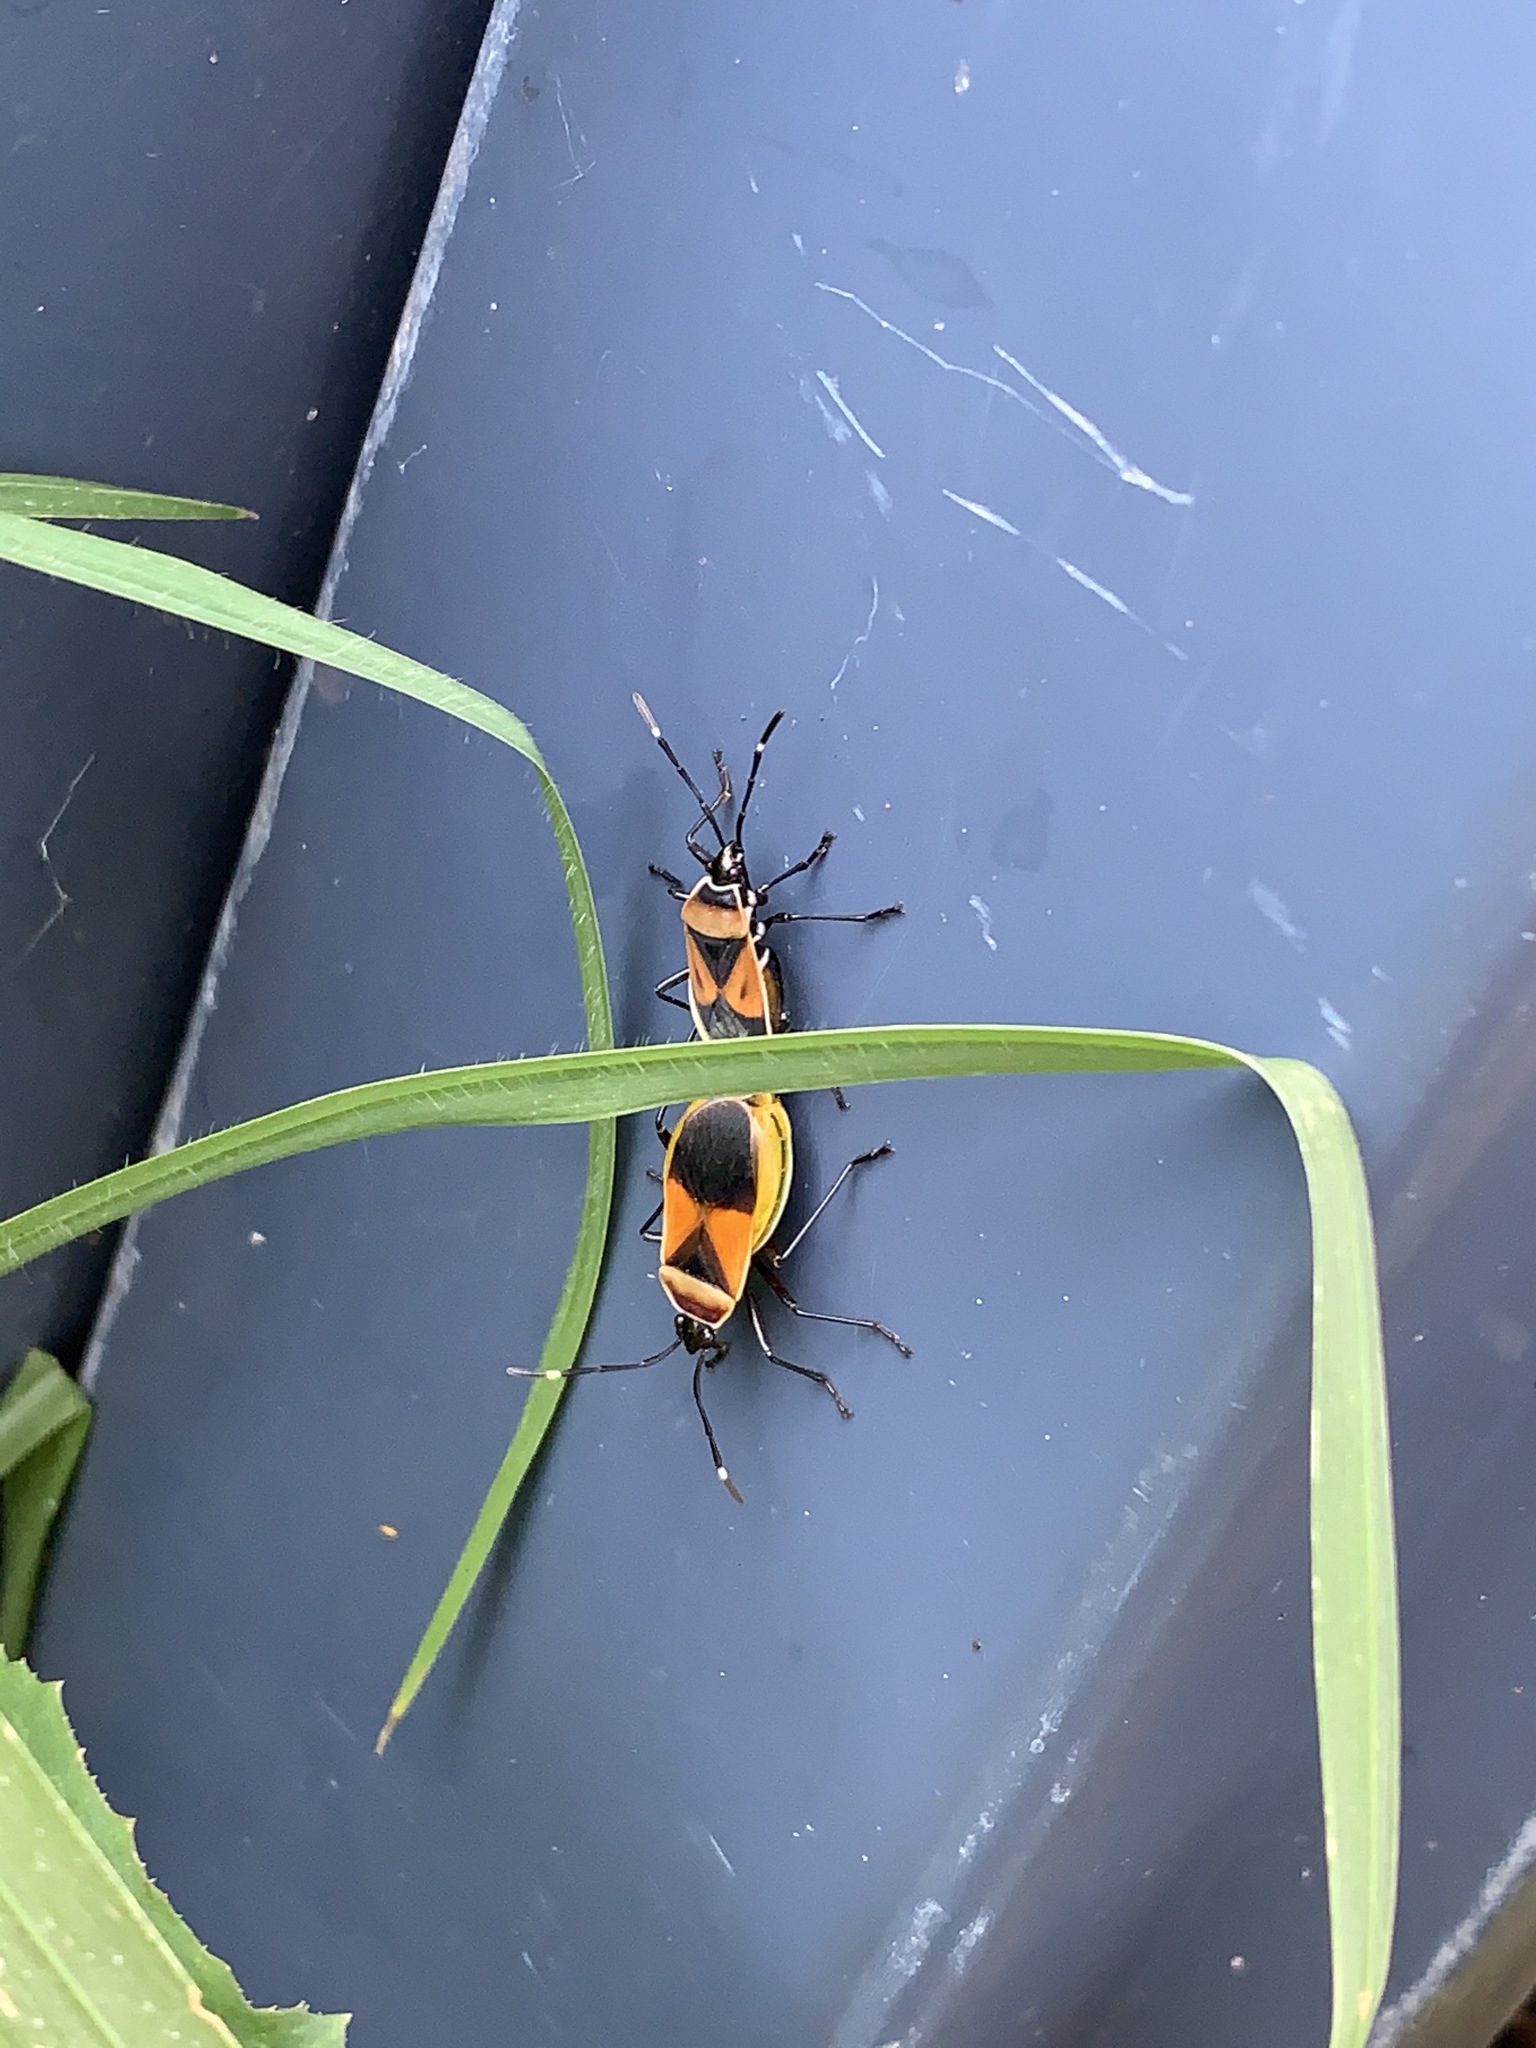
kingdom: Animalia
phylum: Arthropoda
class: Insecta
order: Hemiptera
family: Pyrrhocoridae
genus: Dindymus
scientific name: Dindymus
